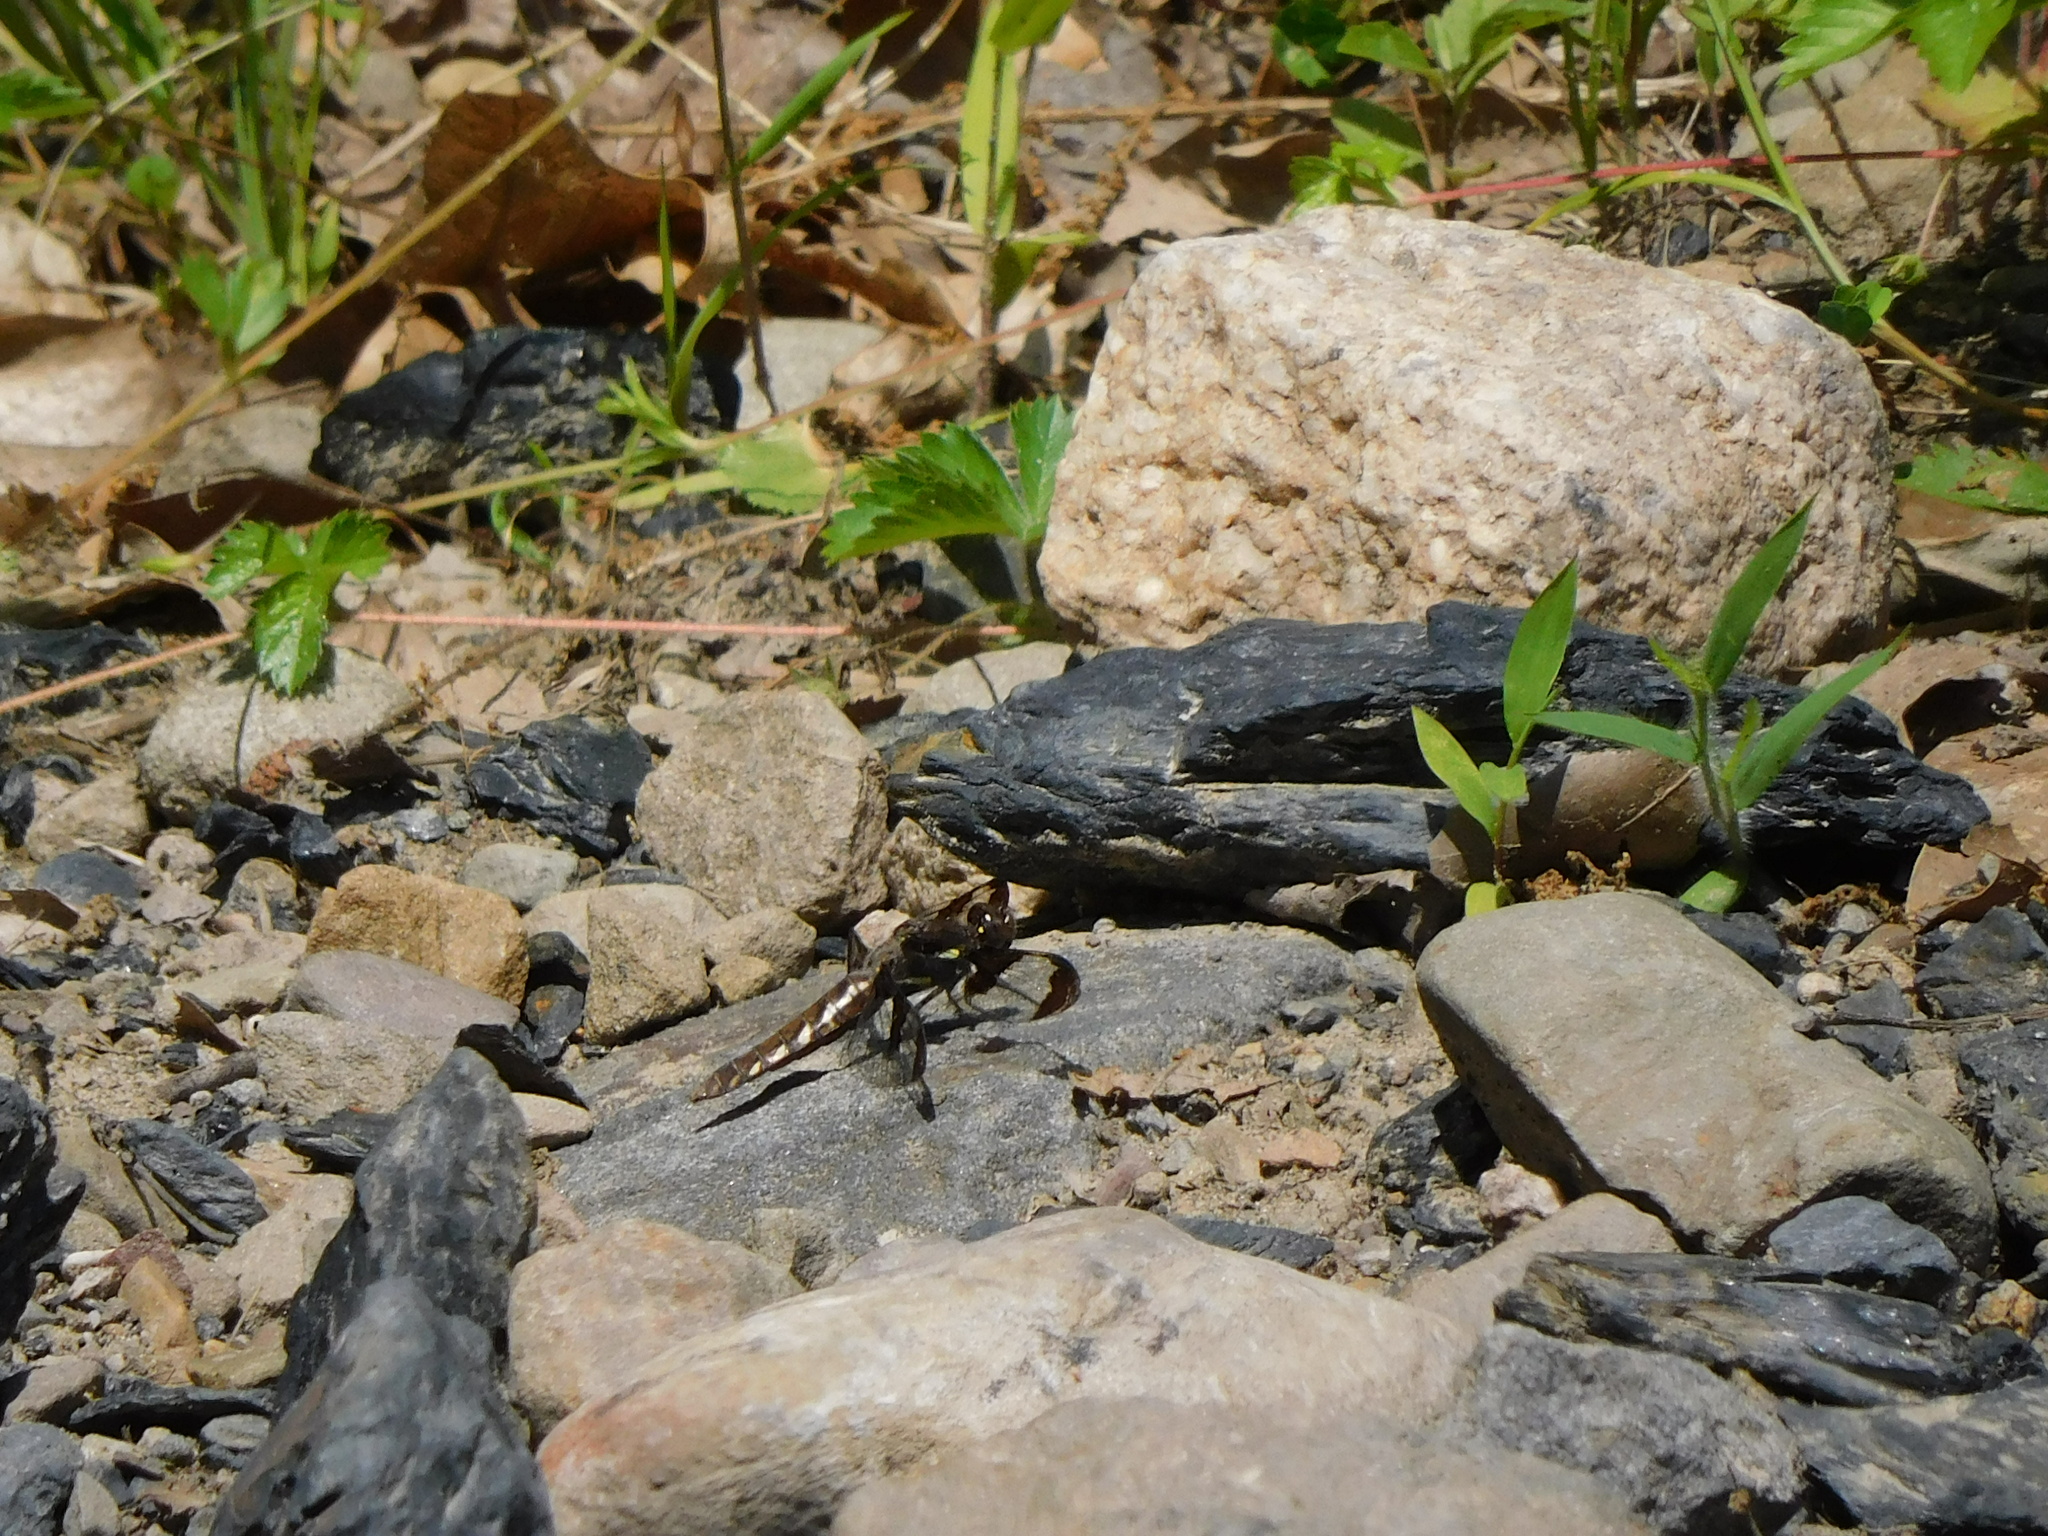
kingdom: Animalia
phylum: Arthropoda
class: Insecta
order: Odonata
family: Libellulidae
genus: Plathemis
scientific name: Plathemis lydia
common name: Common whitetail
